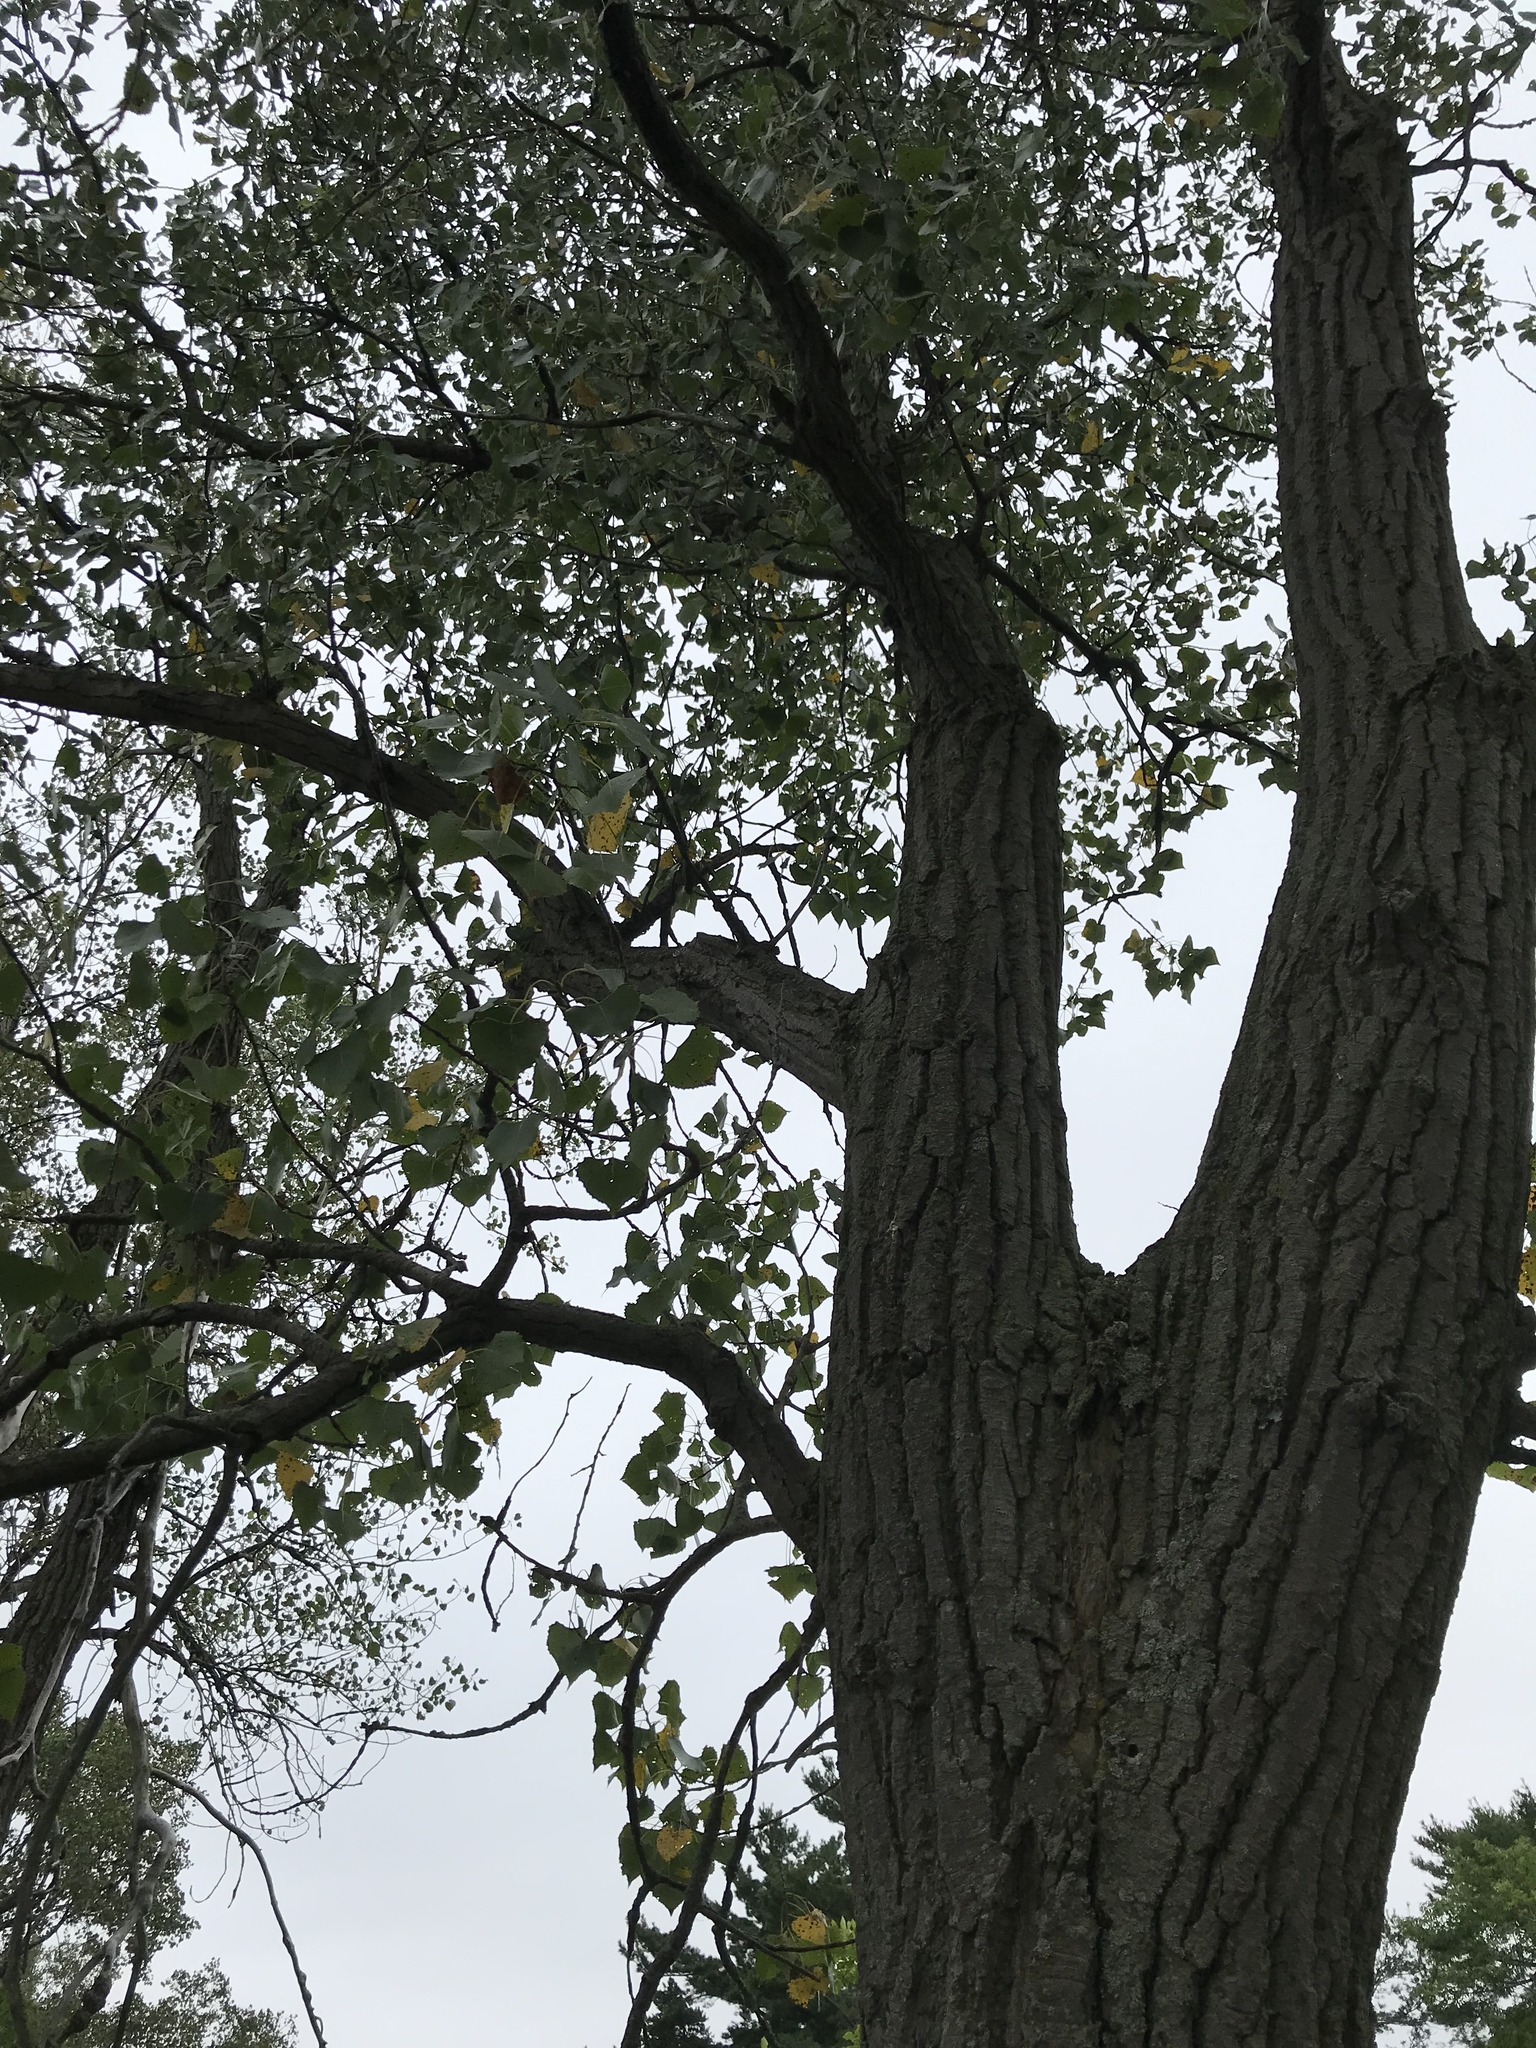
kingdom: Plantae
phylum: Tracheophyta
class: Magnoliopsida
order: Malpighiales
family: Salicaceae
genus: Populus
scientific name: Populus deltoides
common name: Eastern cottonwood
